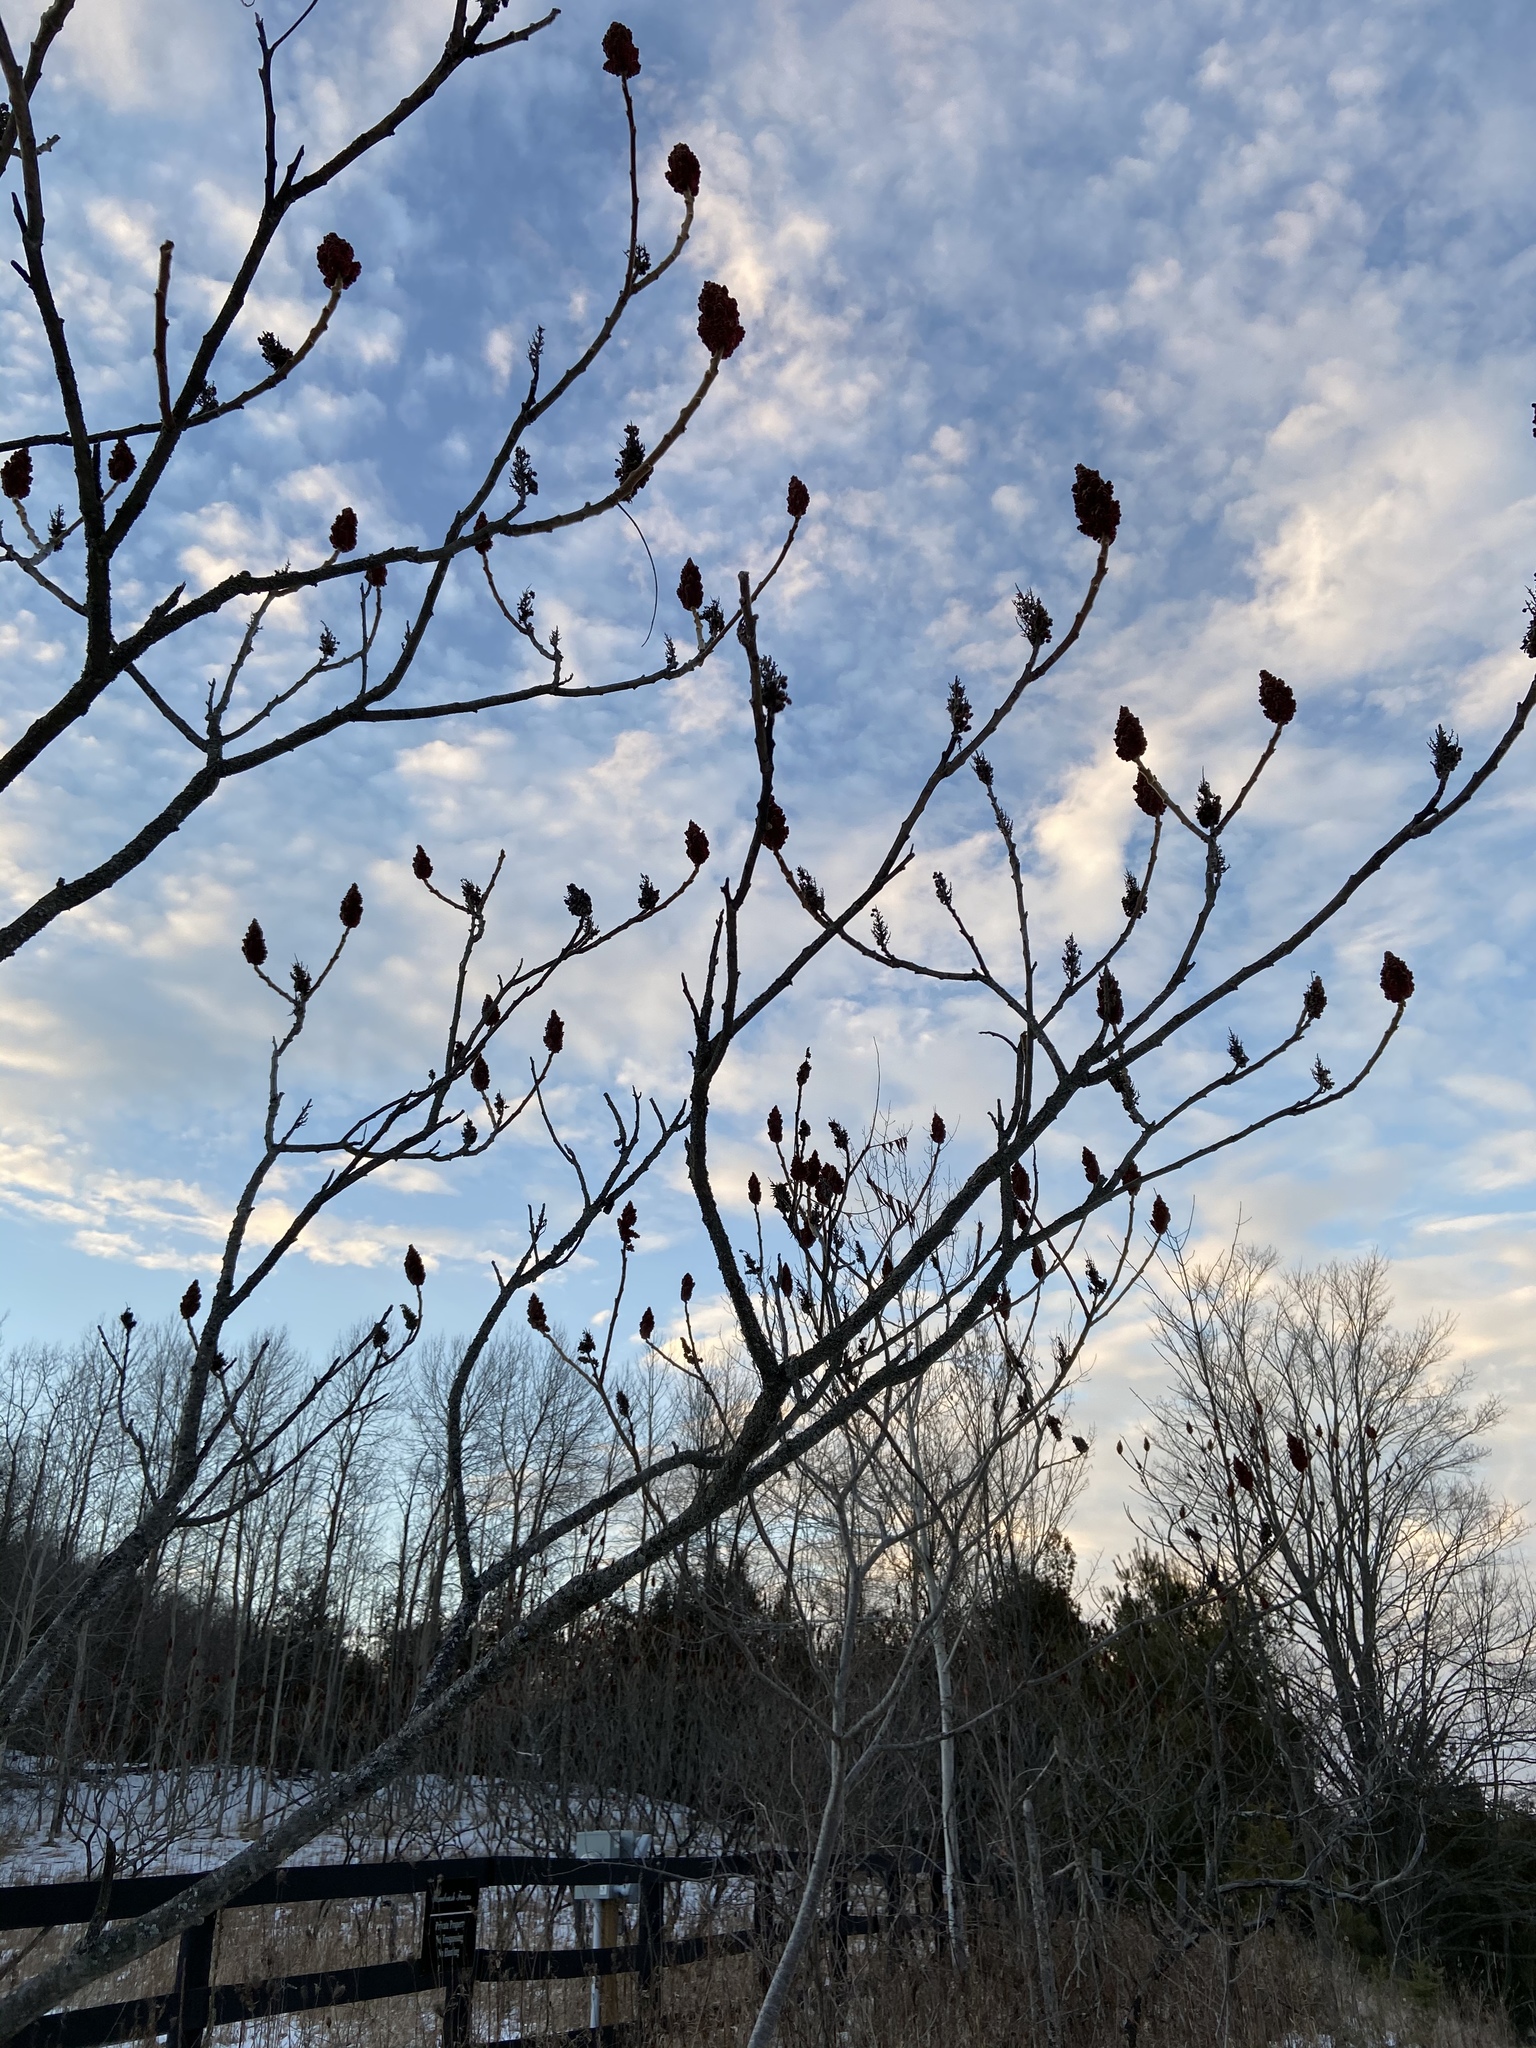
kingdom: Plantae
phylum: Tracheophyta
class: Magnoliopsida
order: Sapindales
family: Anacardiaceae
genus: Rhus
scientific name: Rhus typhina
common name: Staghorn sumac
